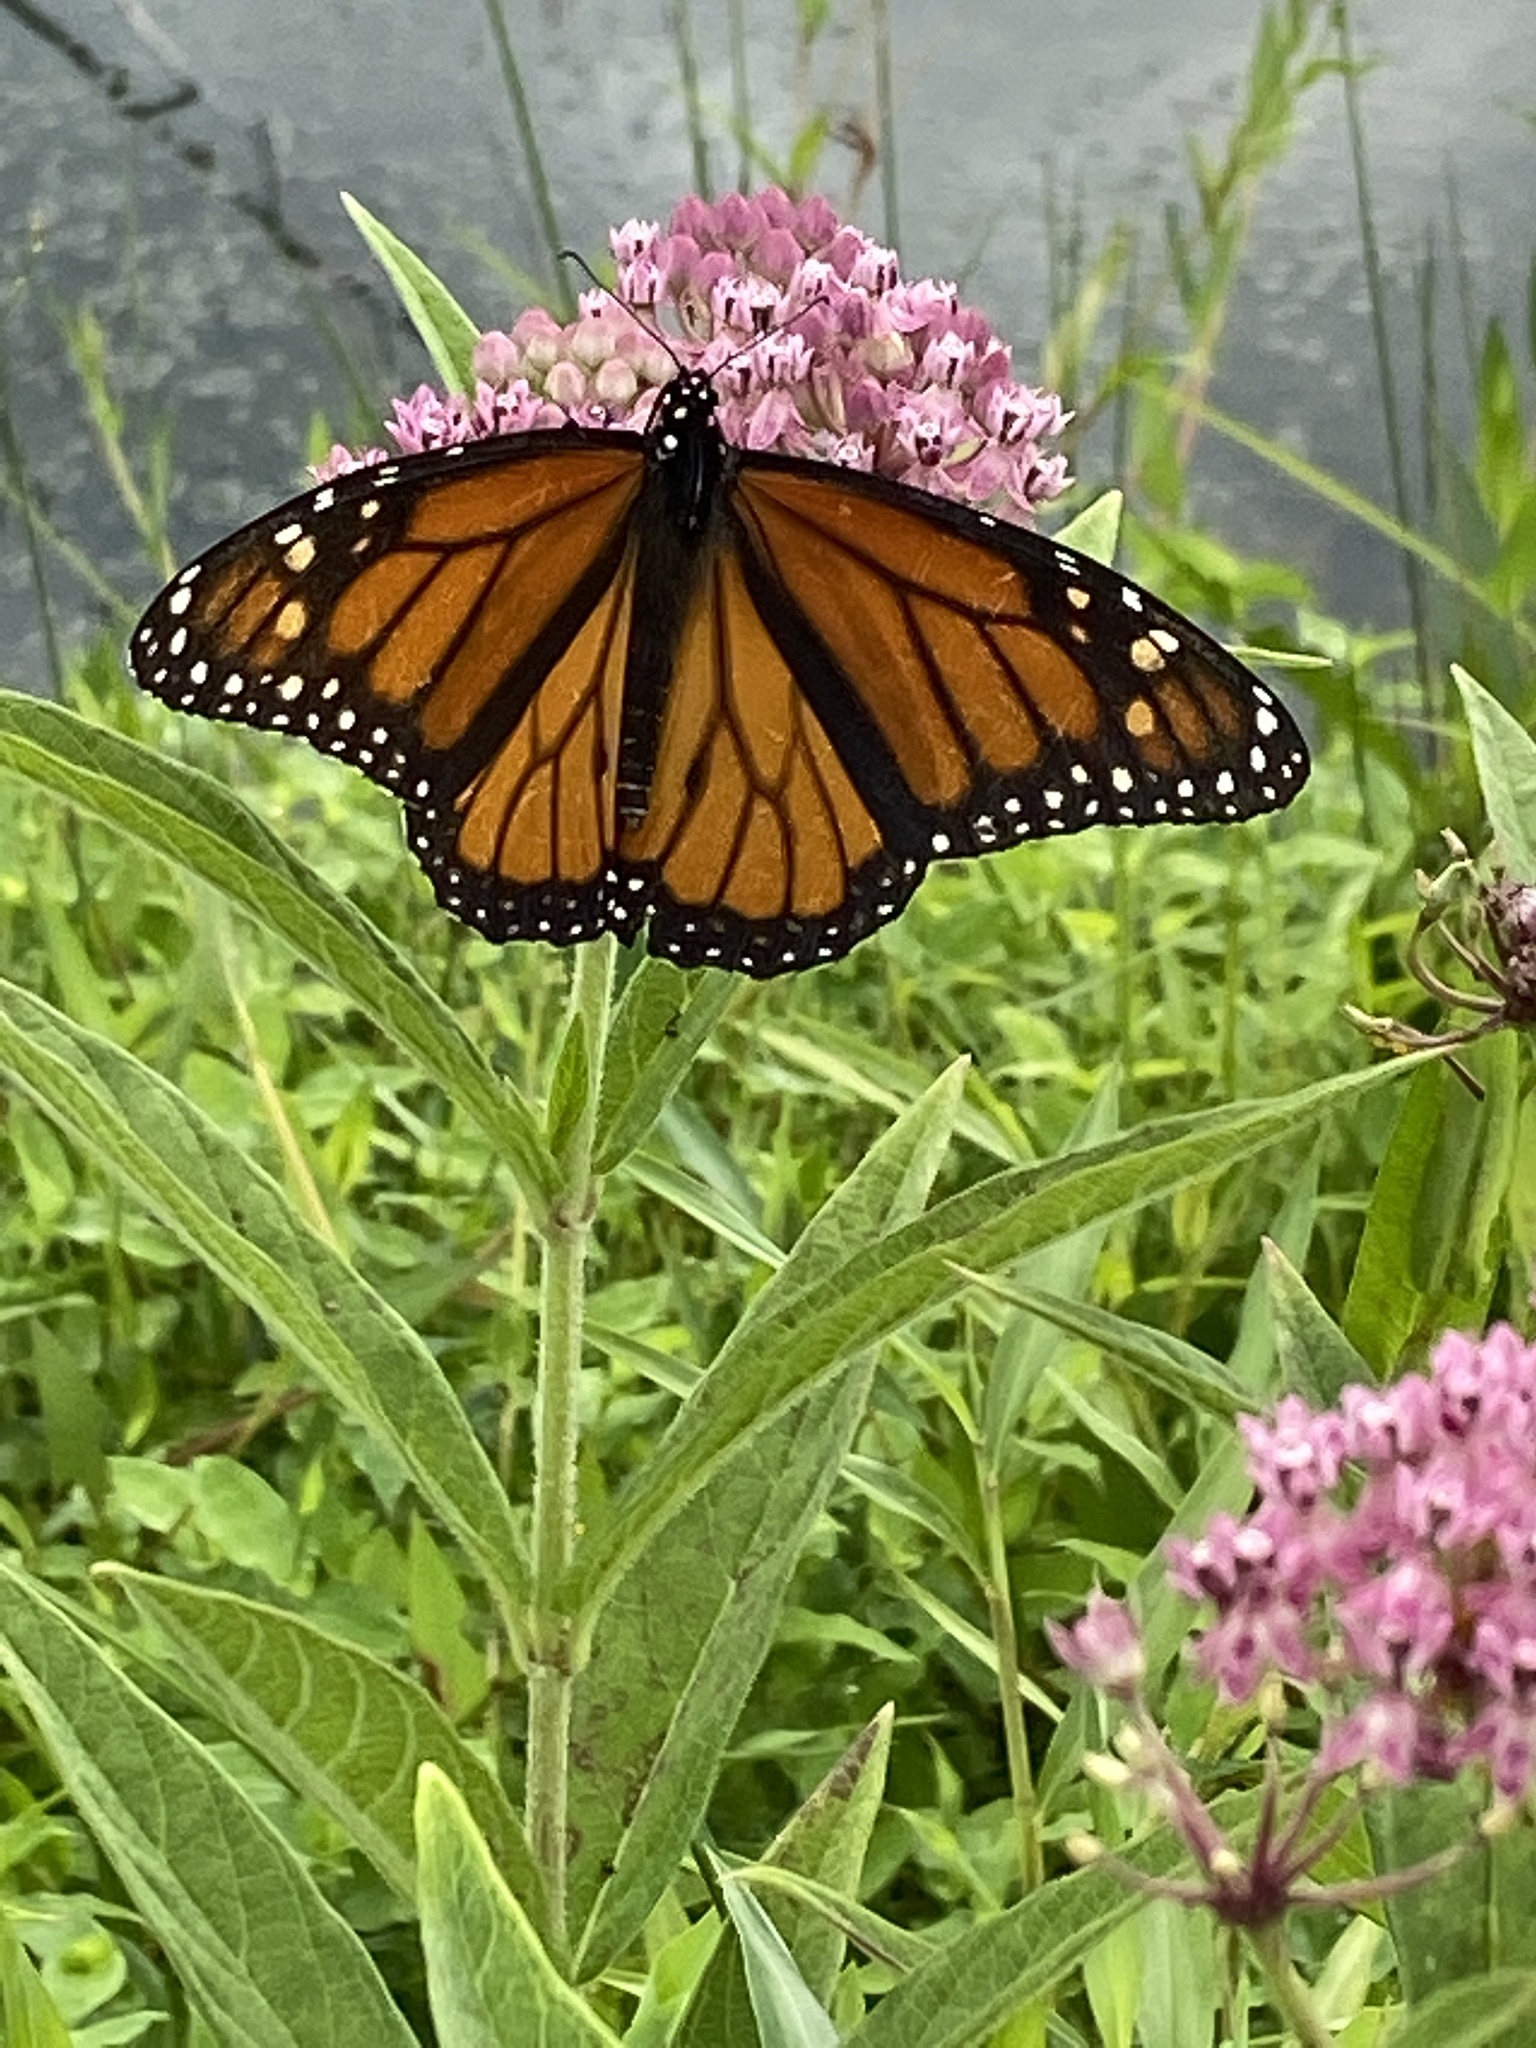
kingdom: Animalia
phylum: Arthropoda
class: Insecta
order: Lepidoptera
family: Nymphalidae
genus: Danaus
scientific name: Danaus plexippus
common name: Monarch
